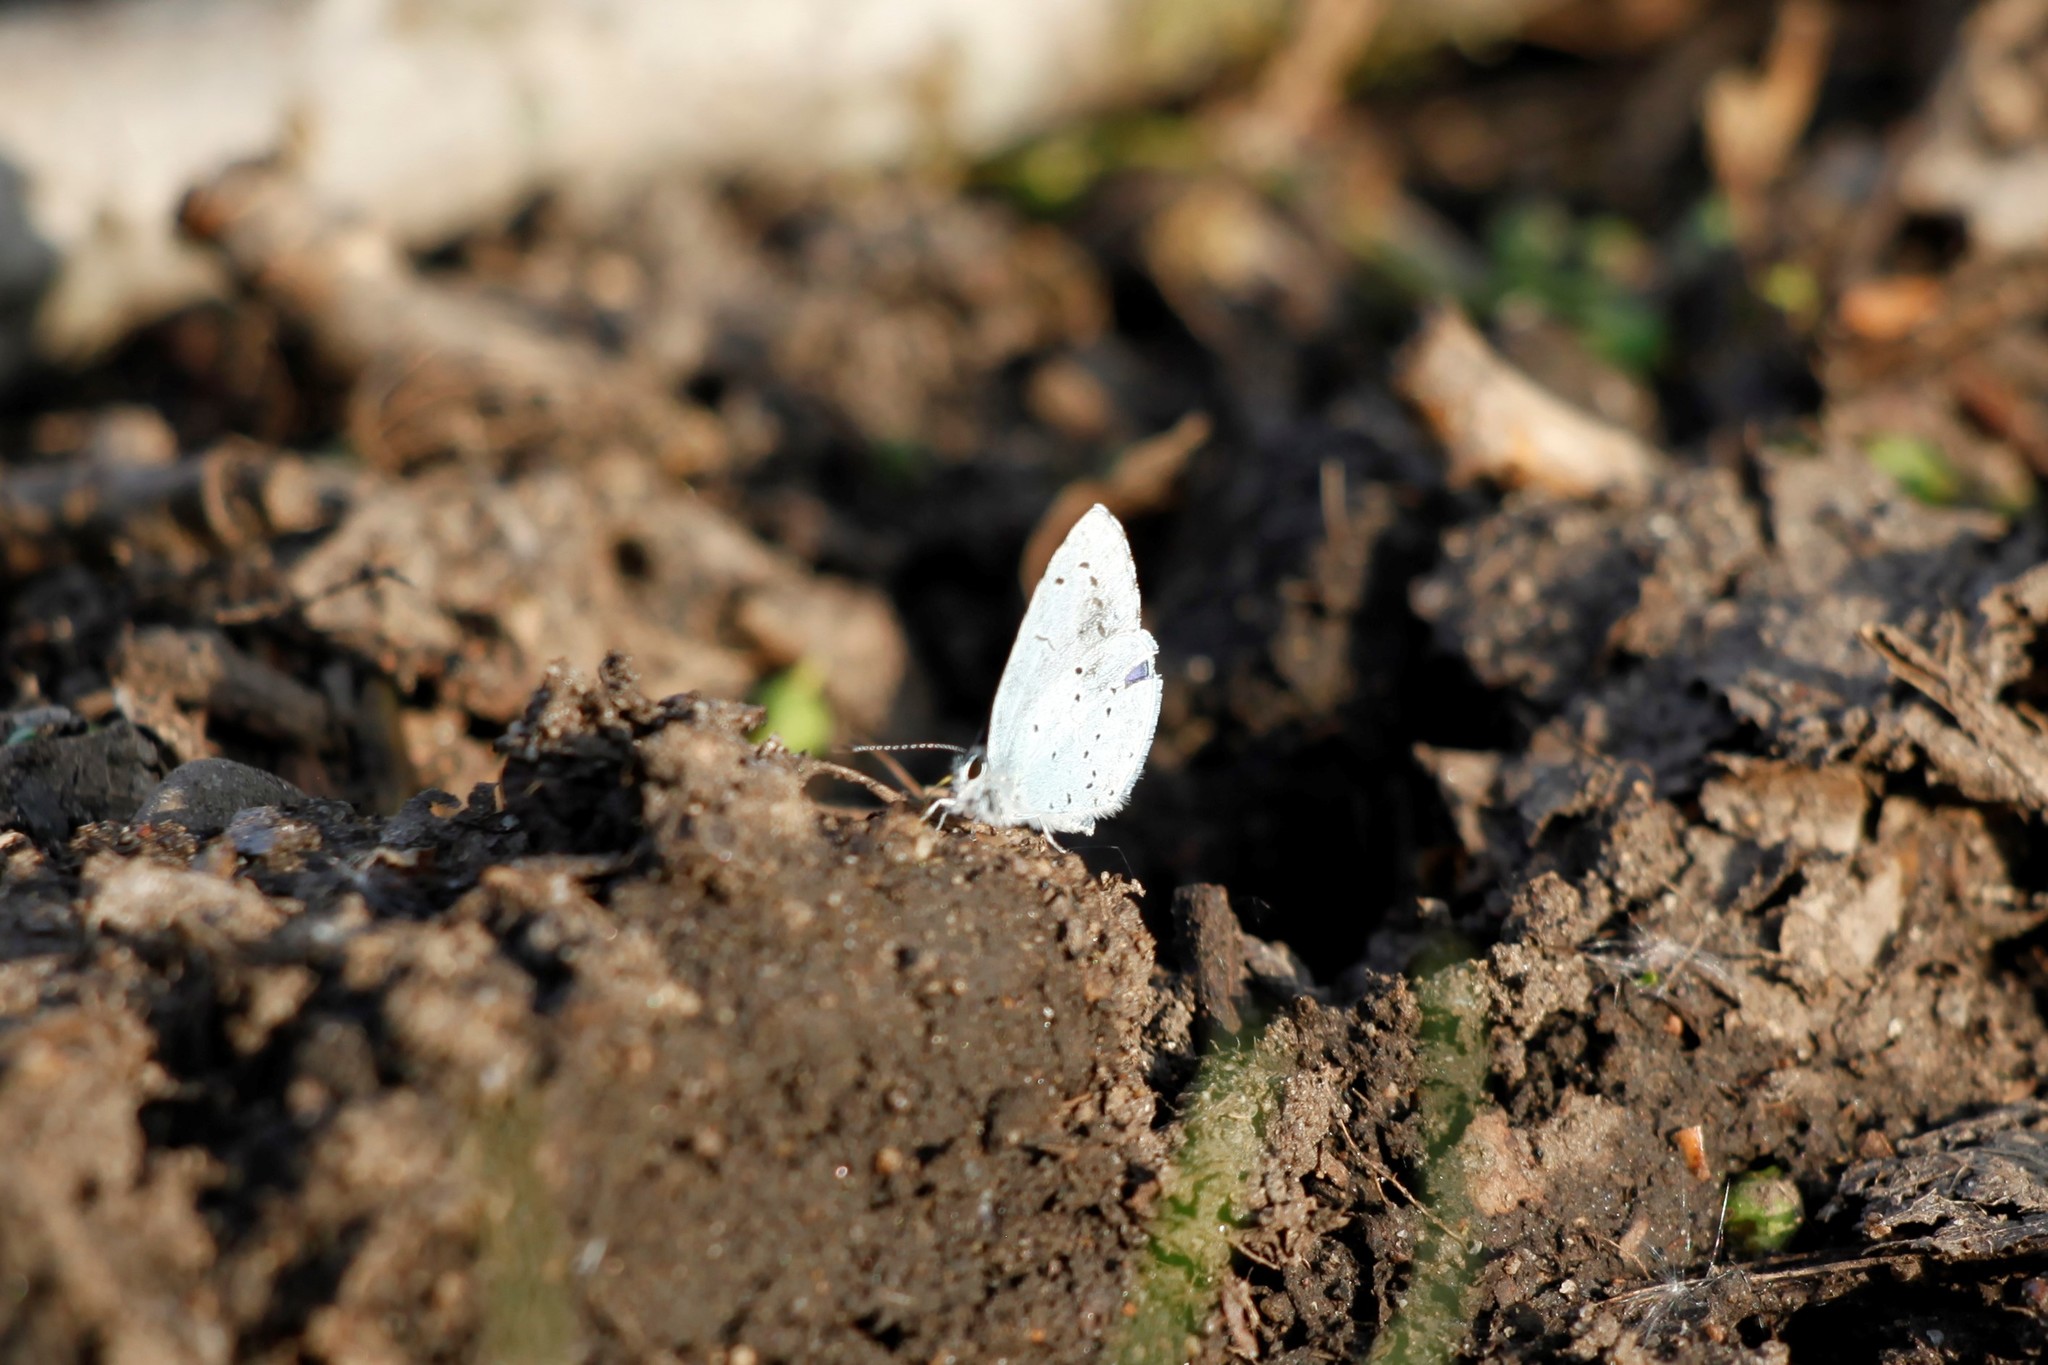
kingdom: Animalia
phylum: Arthropoda
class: Insecta
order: Lepidoptera
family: Lycaenidae
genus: Celastrina
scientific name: Celastrina argiolus
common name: Holly blue
